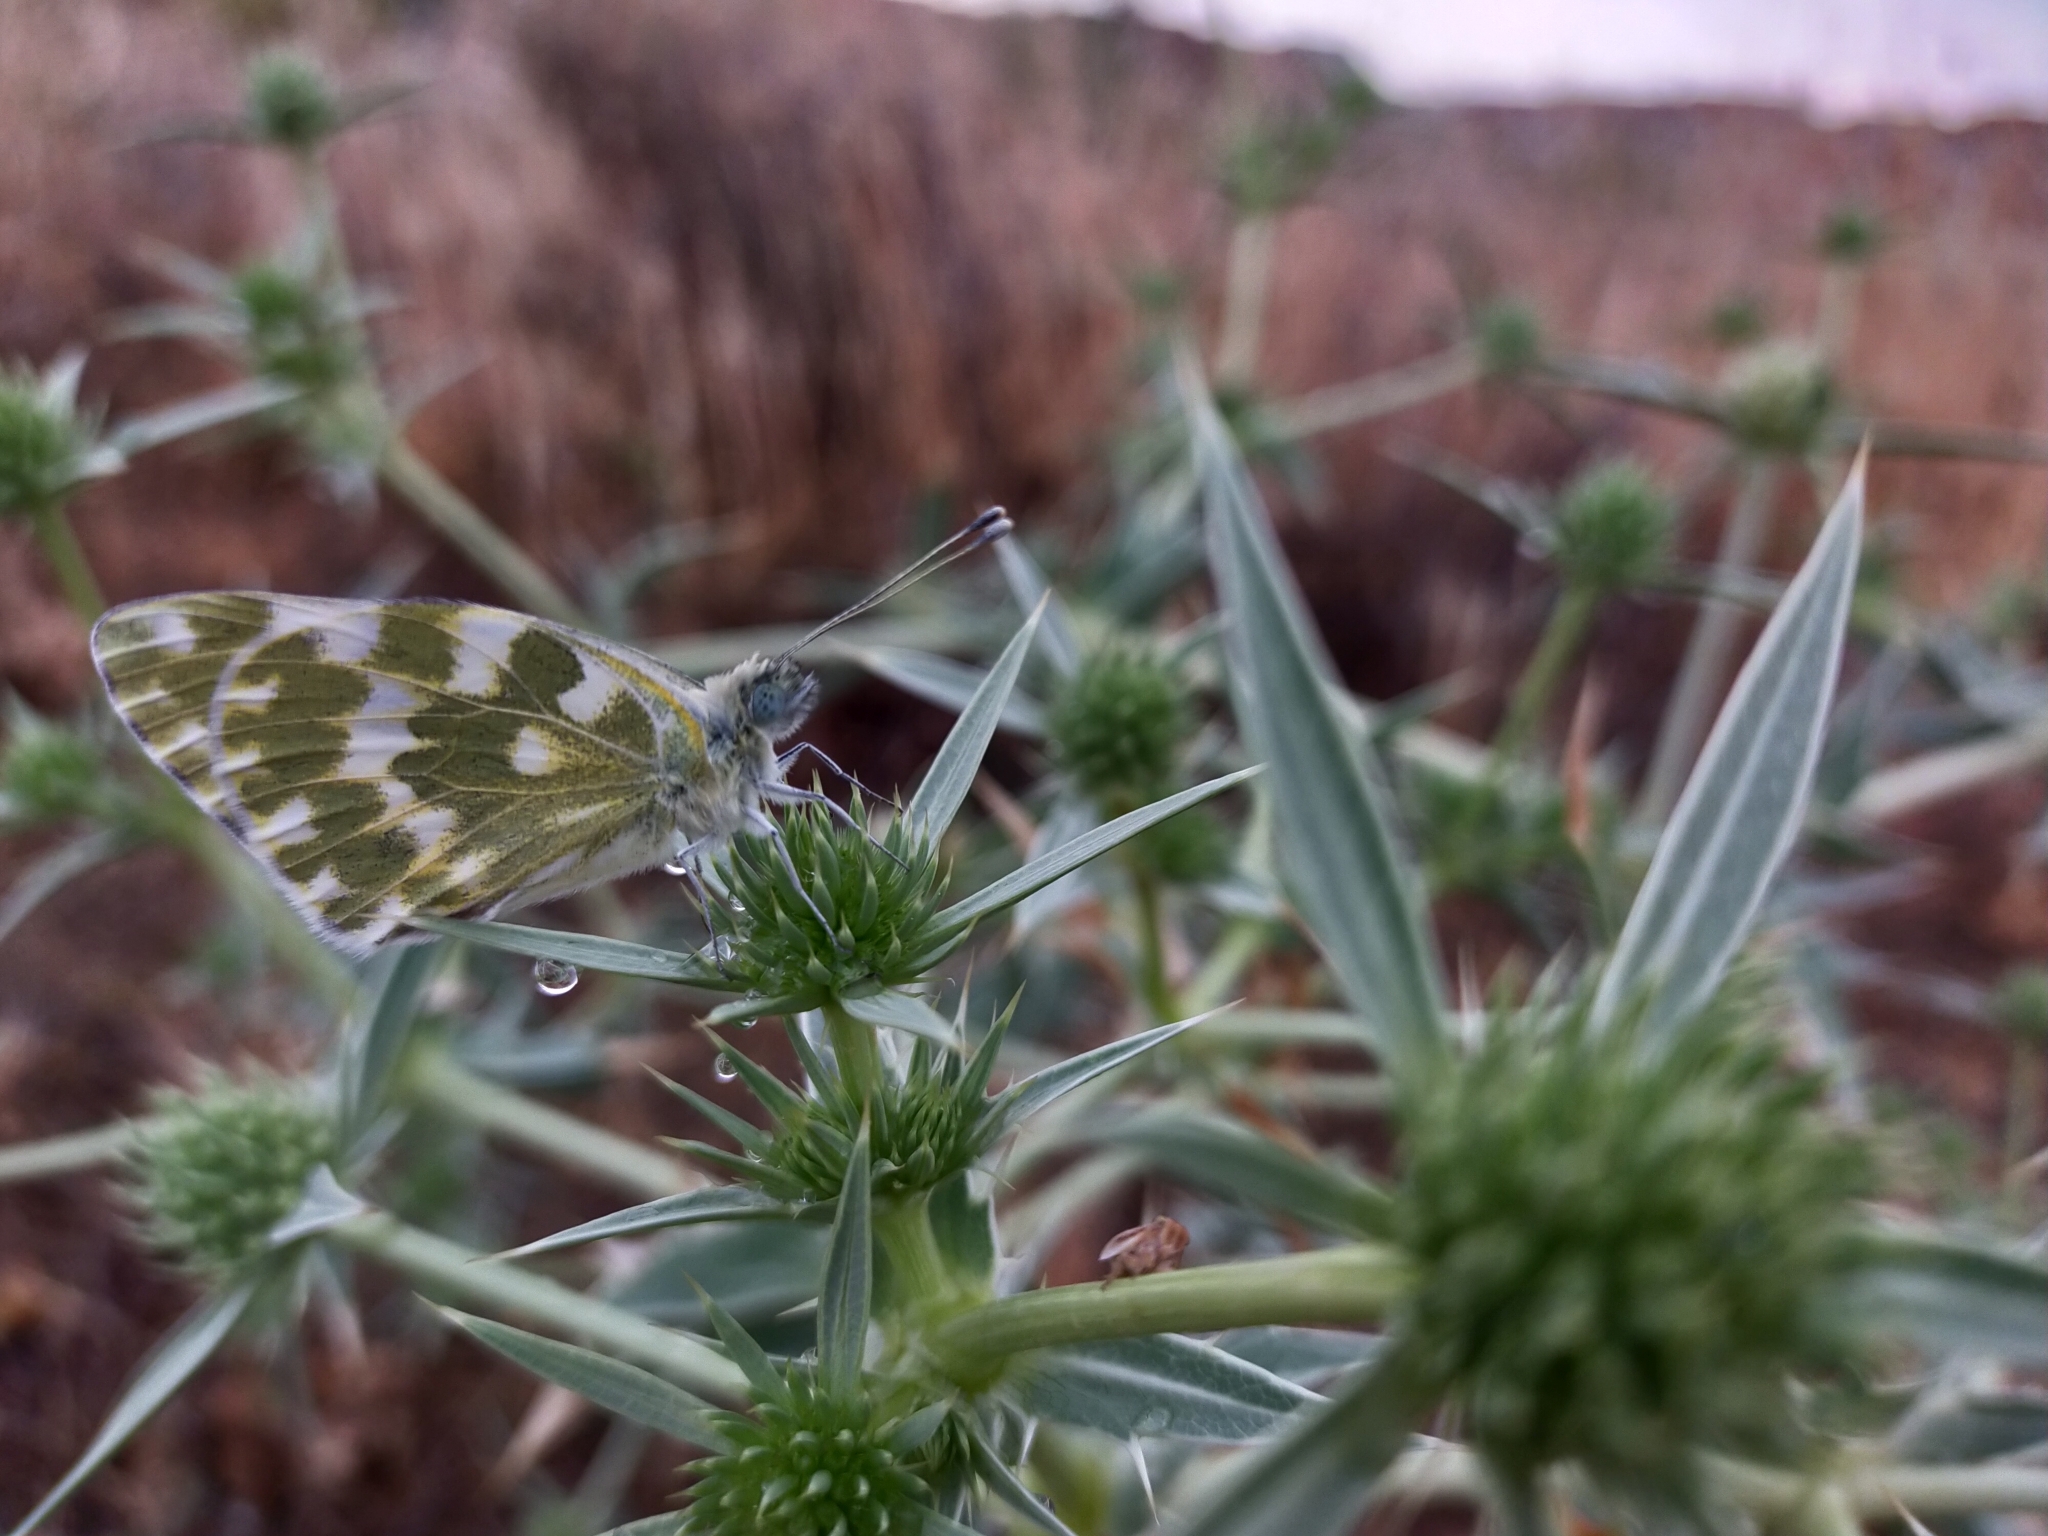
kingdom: Animalia
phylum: Arthropoda
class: Insecta
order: Lepidoptera
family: Pieridae
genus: Pontia
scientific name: Pontia daplidice
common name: Bath white
